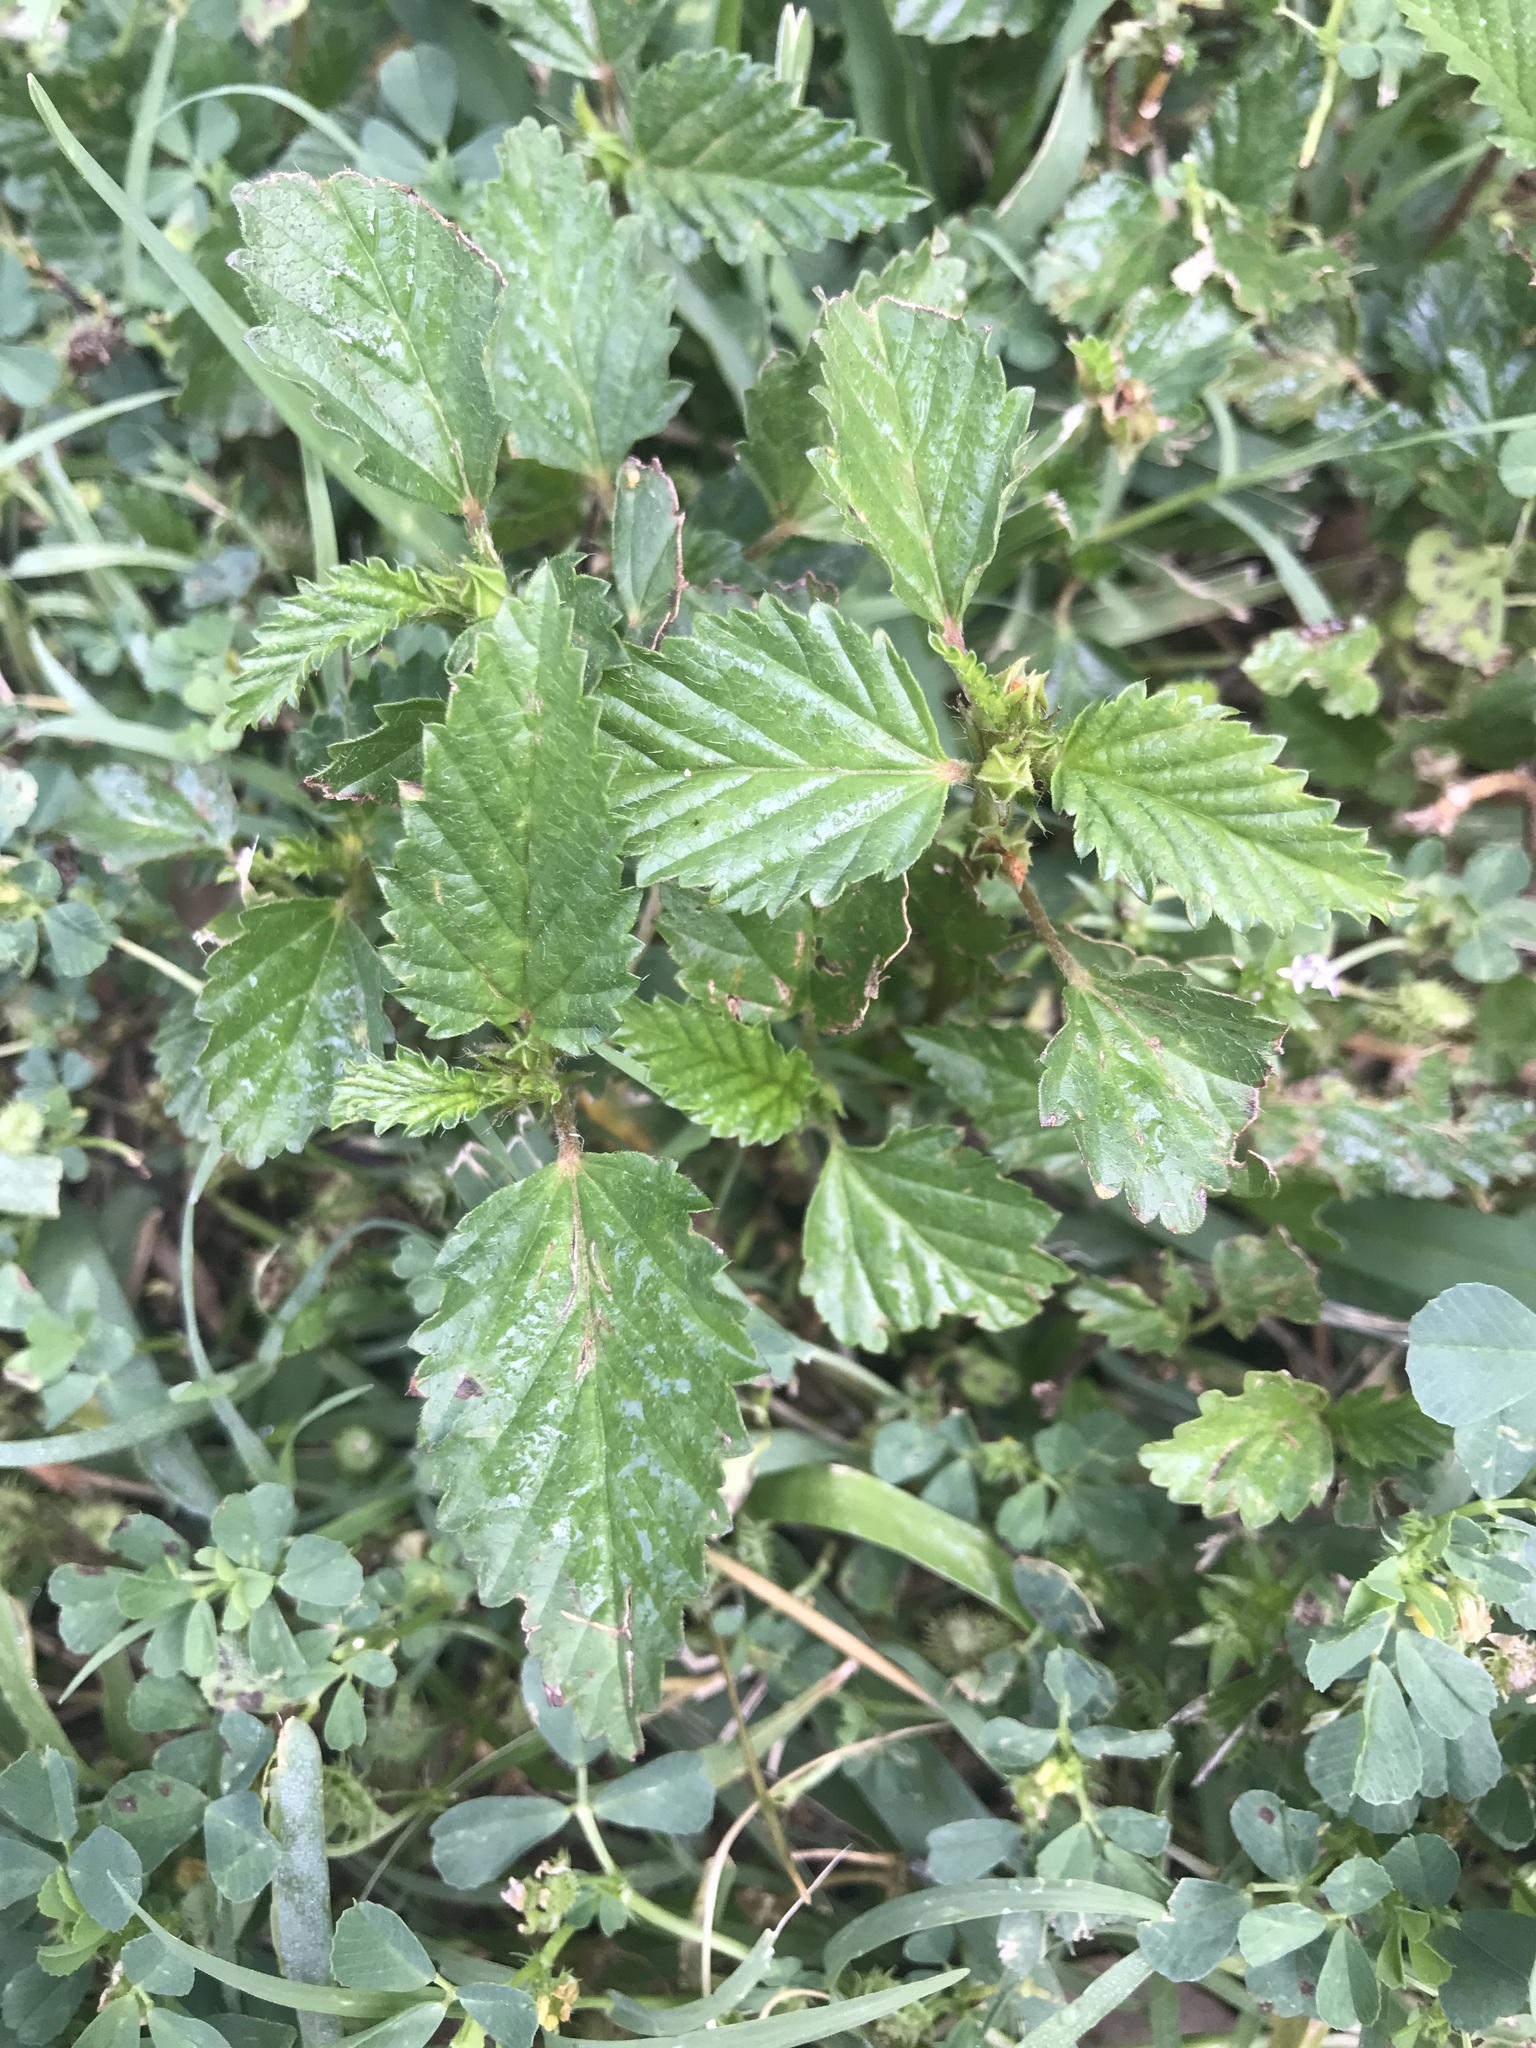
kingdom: Plantae
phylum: Tracheophyta
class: Magnoliopsida
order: Malvales
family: Malvaceae
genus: Malvastrum
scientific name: Malvastrum coromandelianum
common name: Threelobe false mallow
